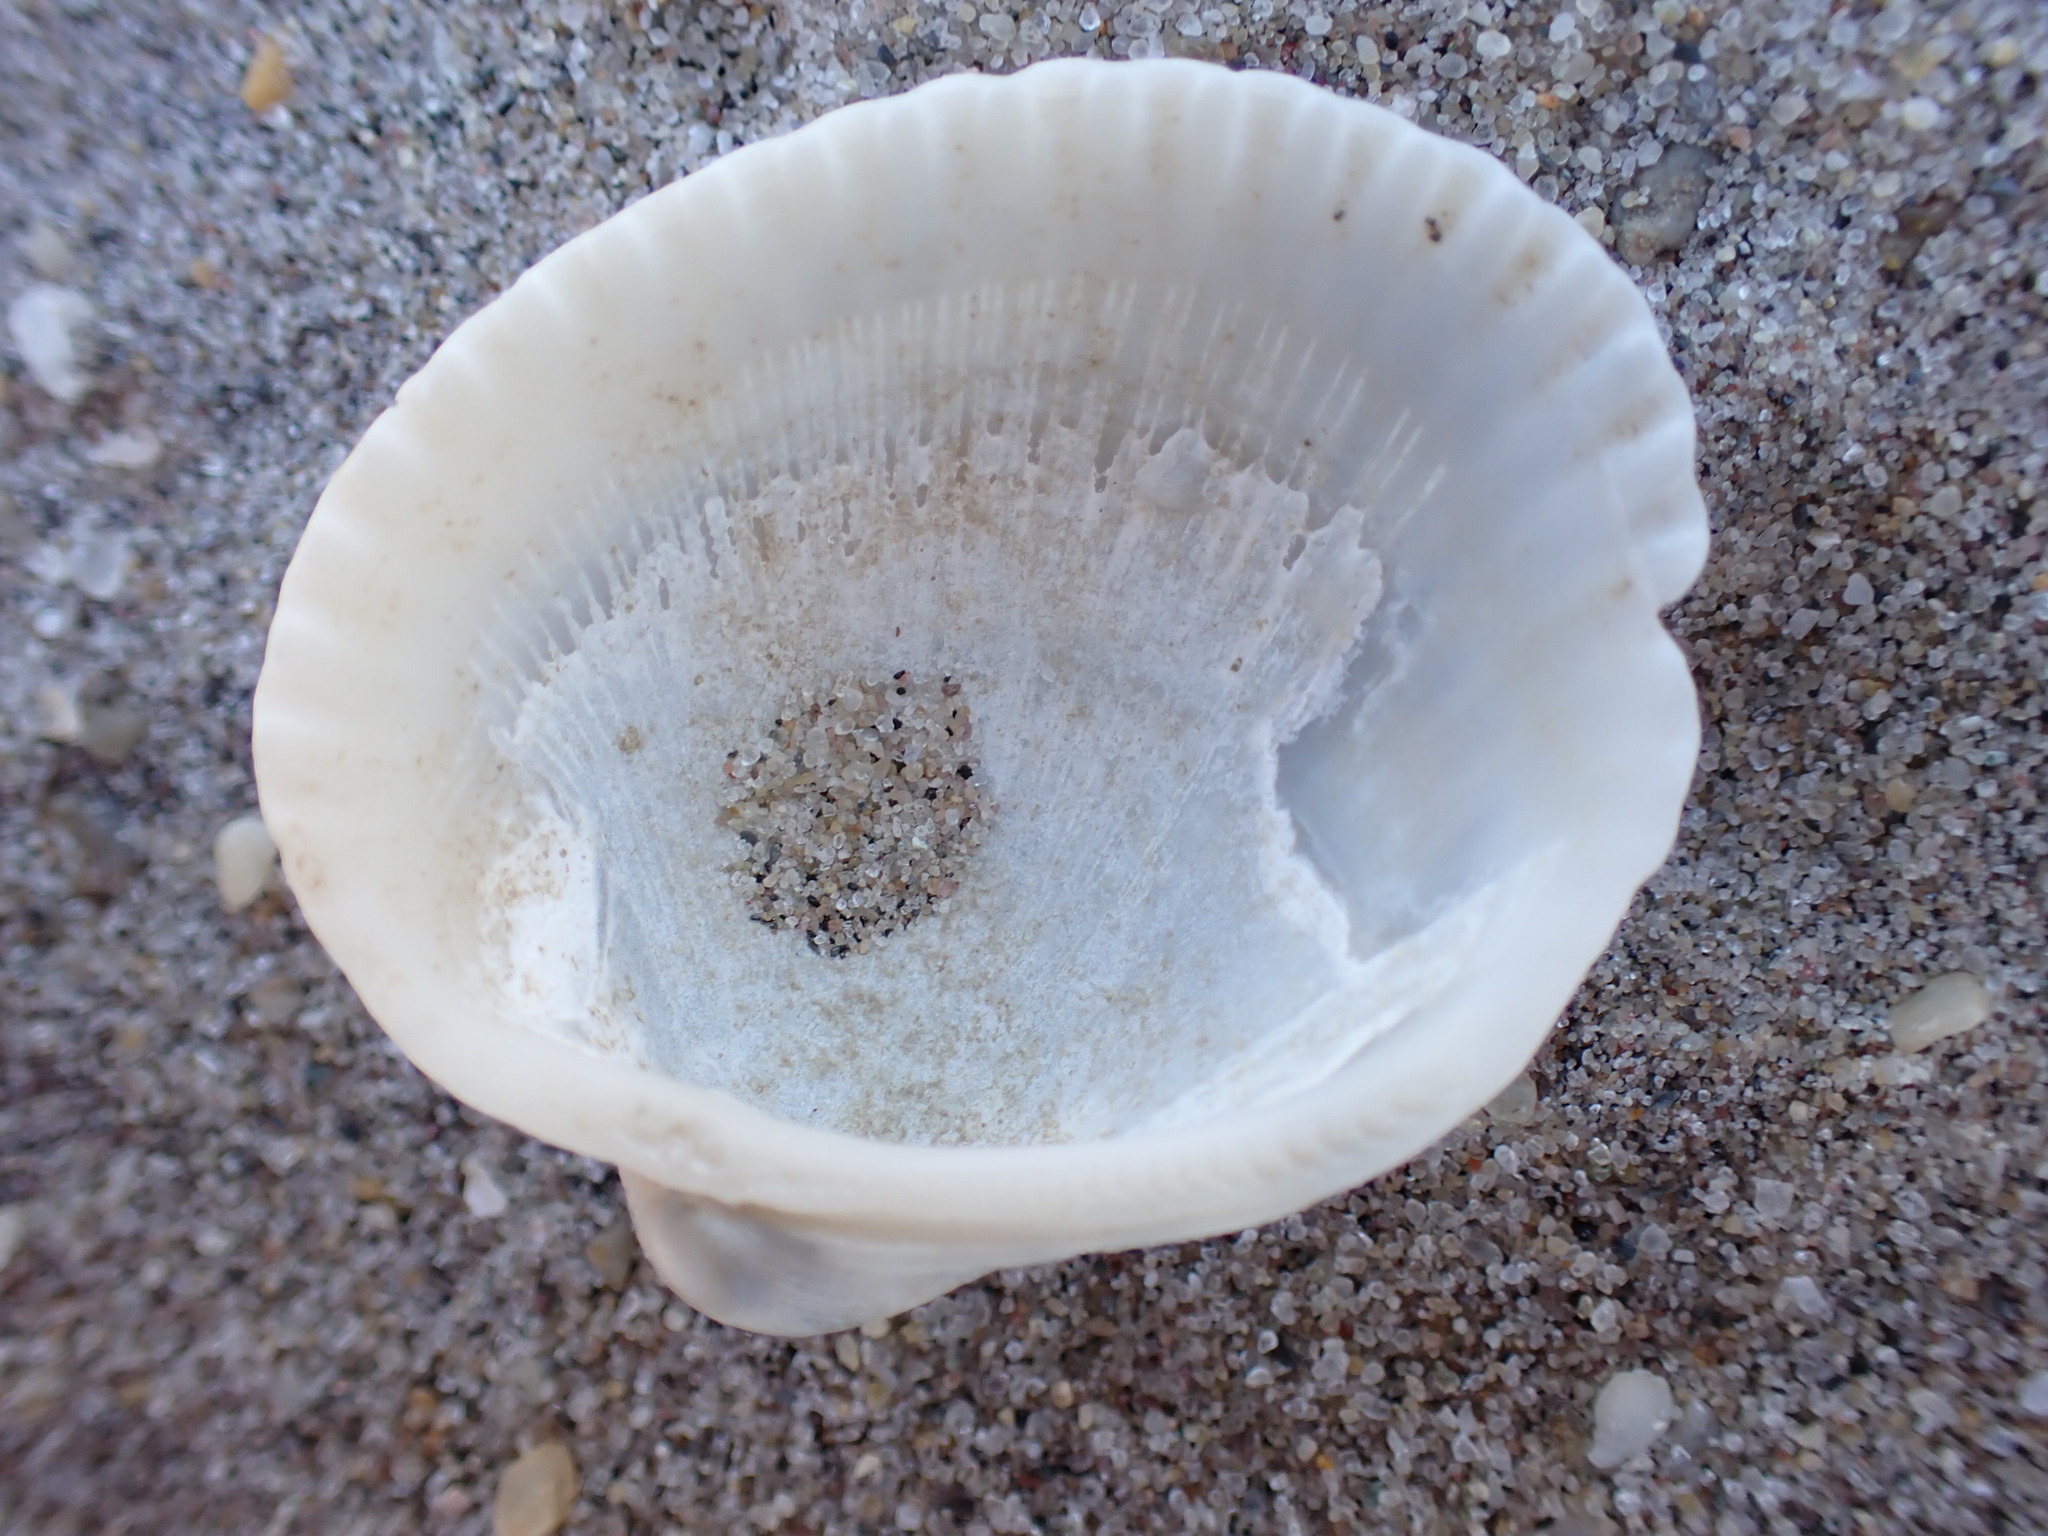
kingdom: Animalia
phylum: Mollusca
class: Bivalvia
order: Arcida
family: Arcidae
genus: Lunarca
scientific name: Lunarca ovalis
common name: Blood ark
